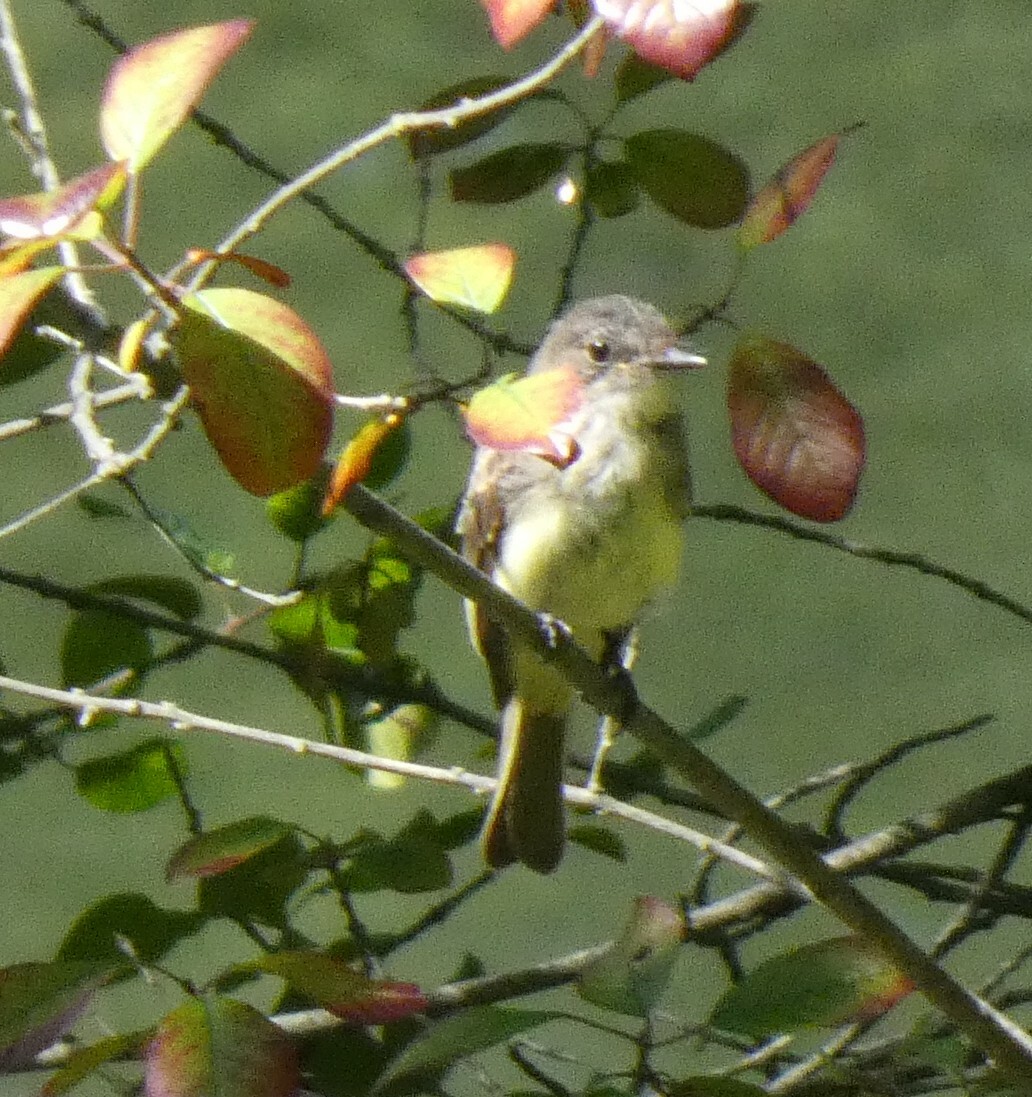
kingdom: Animalia
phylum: Chordata
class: Aves
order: Passeriformes
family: Tyrannidae
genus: Sayornis
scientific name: Sayornis phoebe
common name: Eastern phoebe
